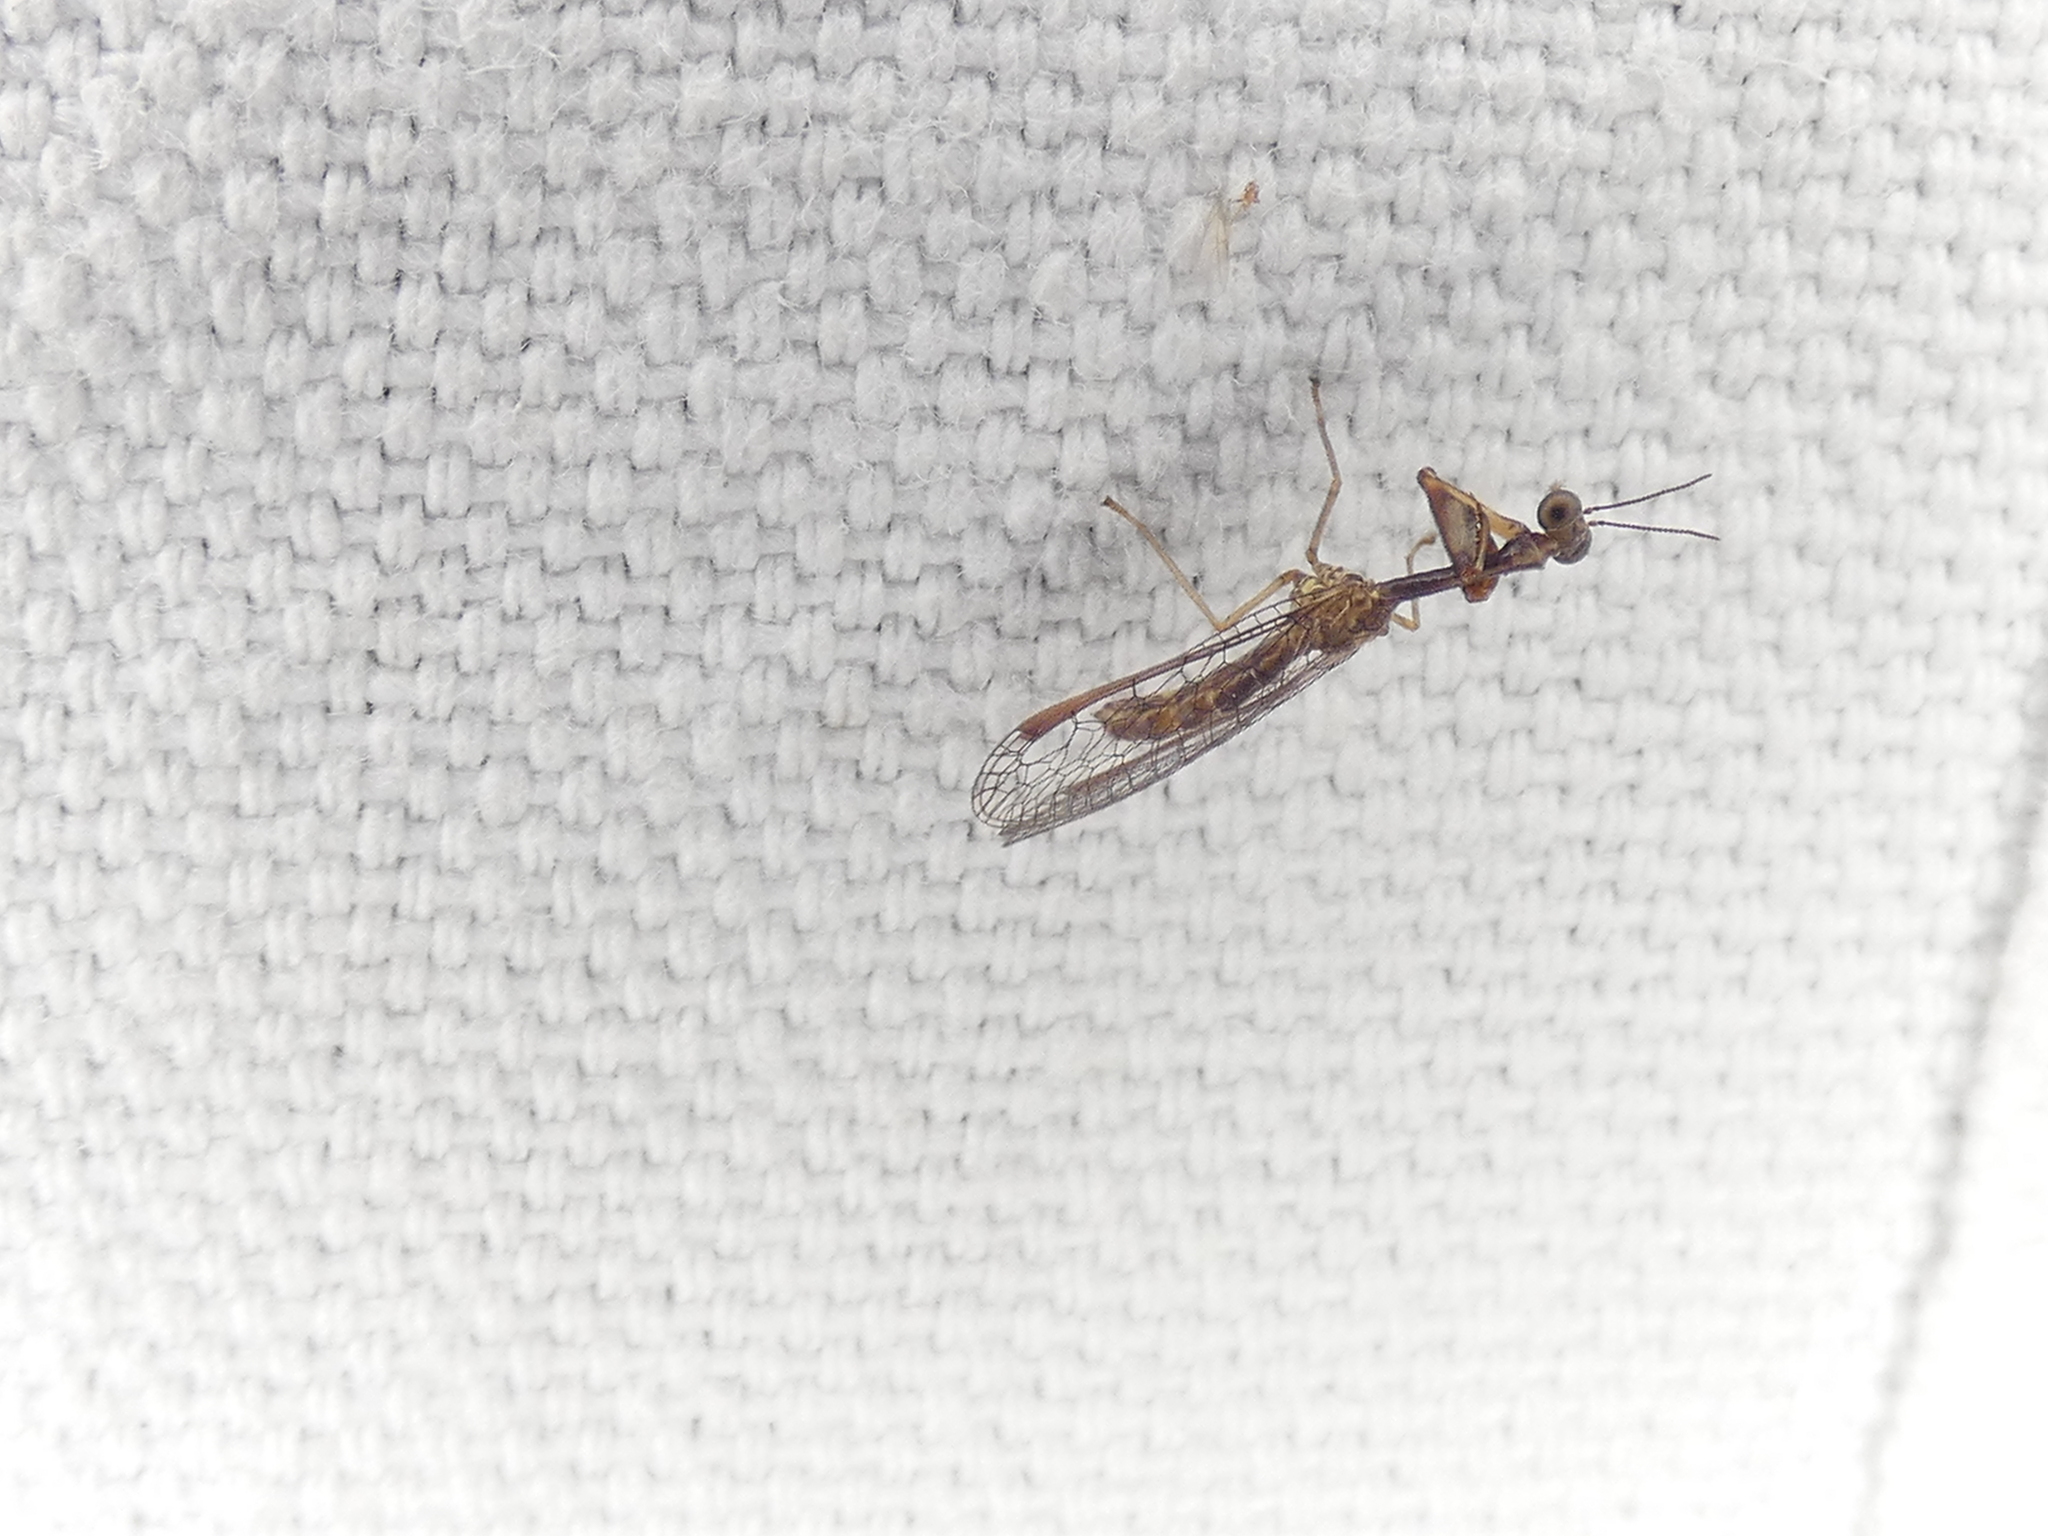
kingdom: Animalia
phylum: Arthropoda
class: Insecta
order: Neuroptera
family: Mantispidae
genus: Leptomantispa
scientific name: Leptomantispa pulchella
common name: Stevens's mantidfly
